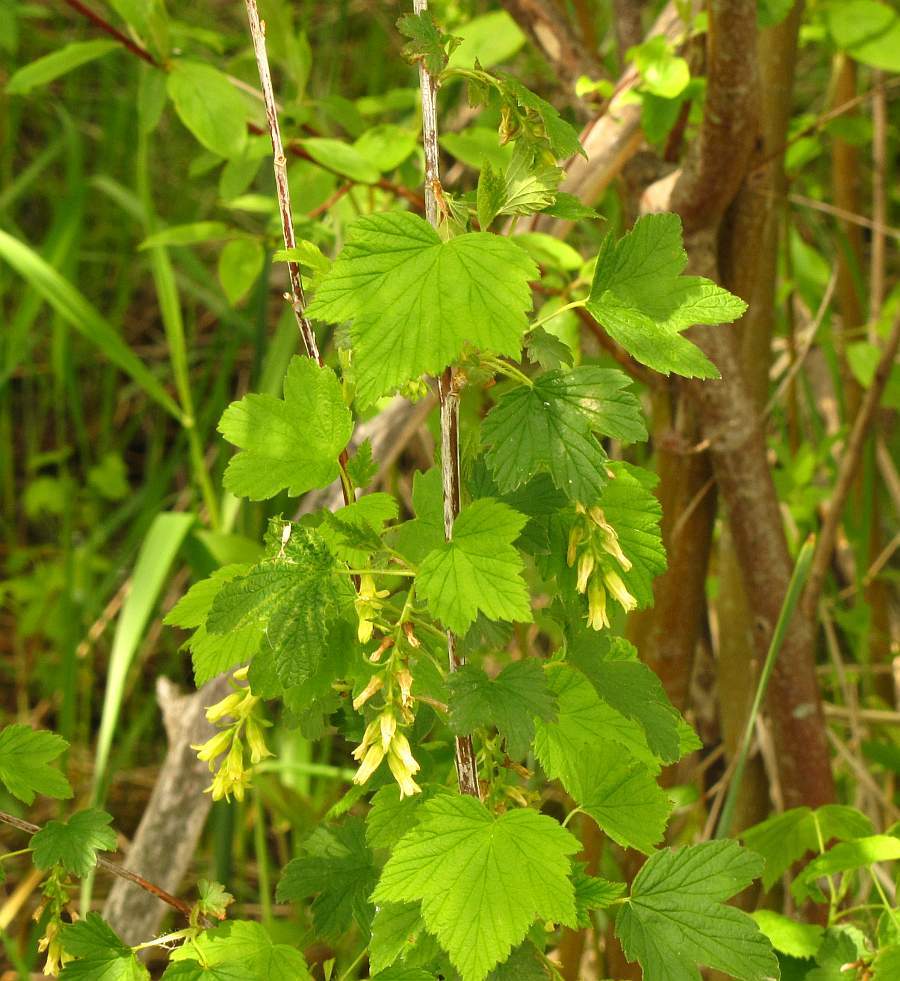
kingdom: Plantae
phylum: Tracheophyta
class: Magnoliopsida
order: Saxifragales
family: Grossulariaceae
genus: Ribes
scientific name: Ribes americanum
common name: American black currant
